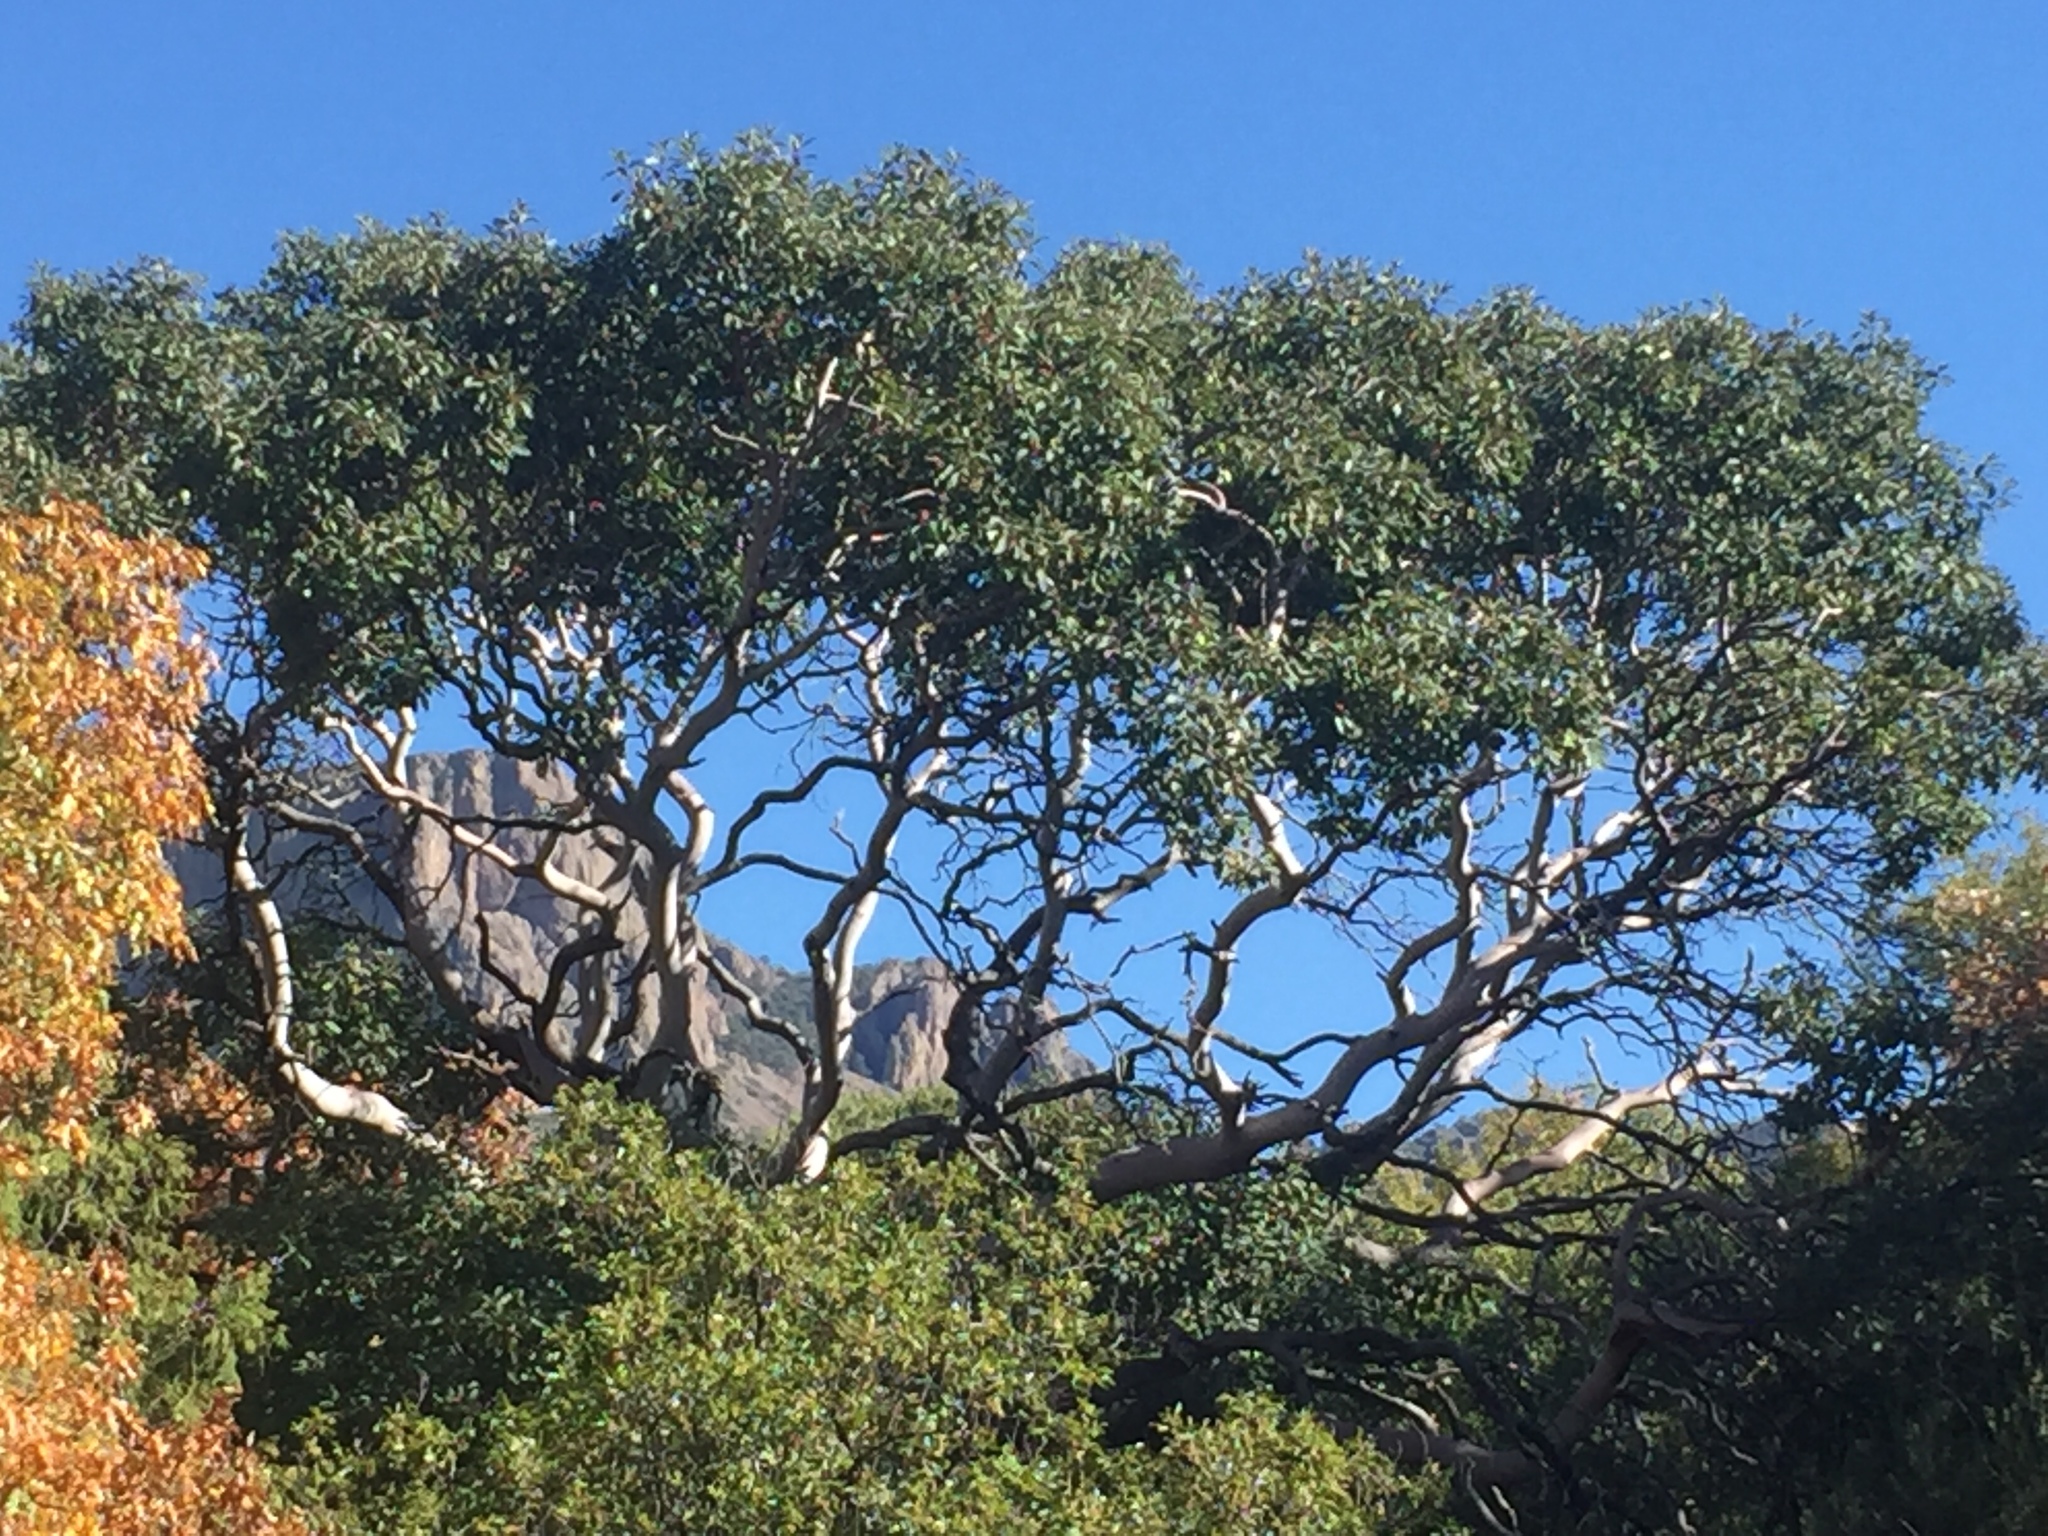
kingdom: Plantae
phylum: Tracheophyta
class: Magnoliopsida
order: Ericales
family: Ericaceae
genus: Arbutus
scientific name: Arbutus xalapensis
